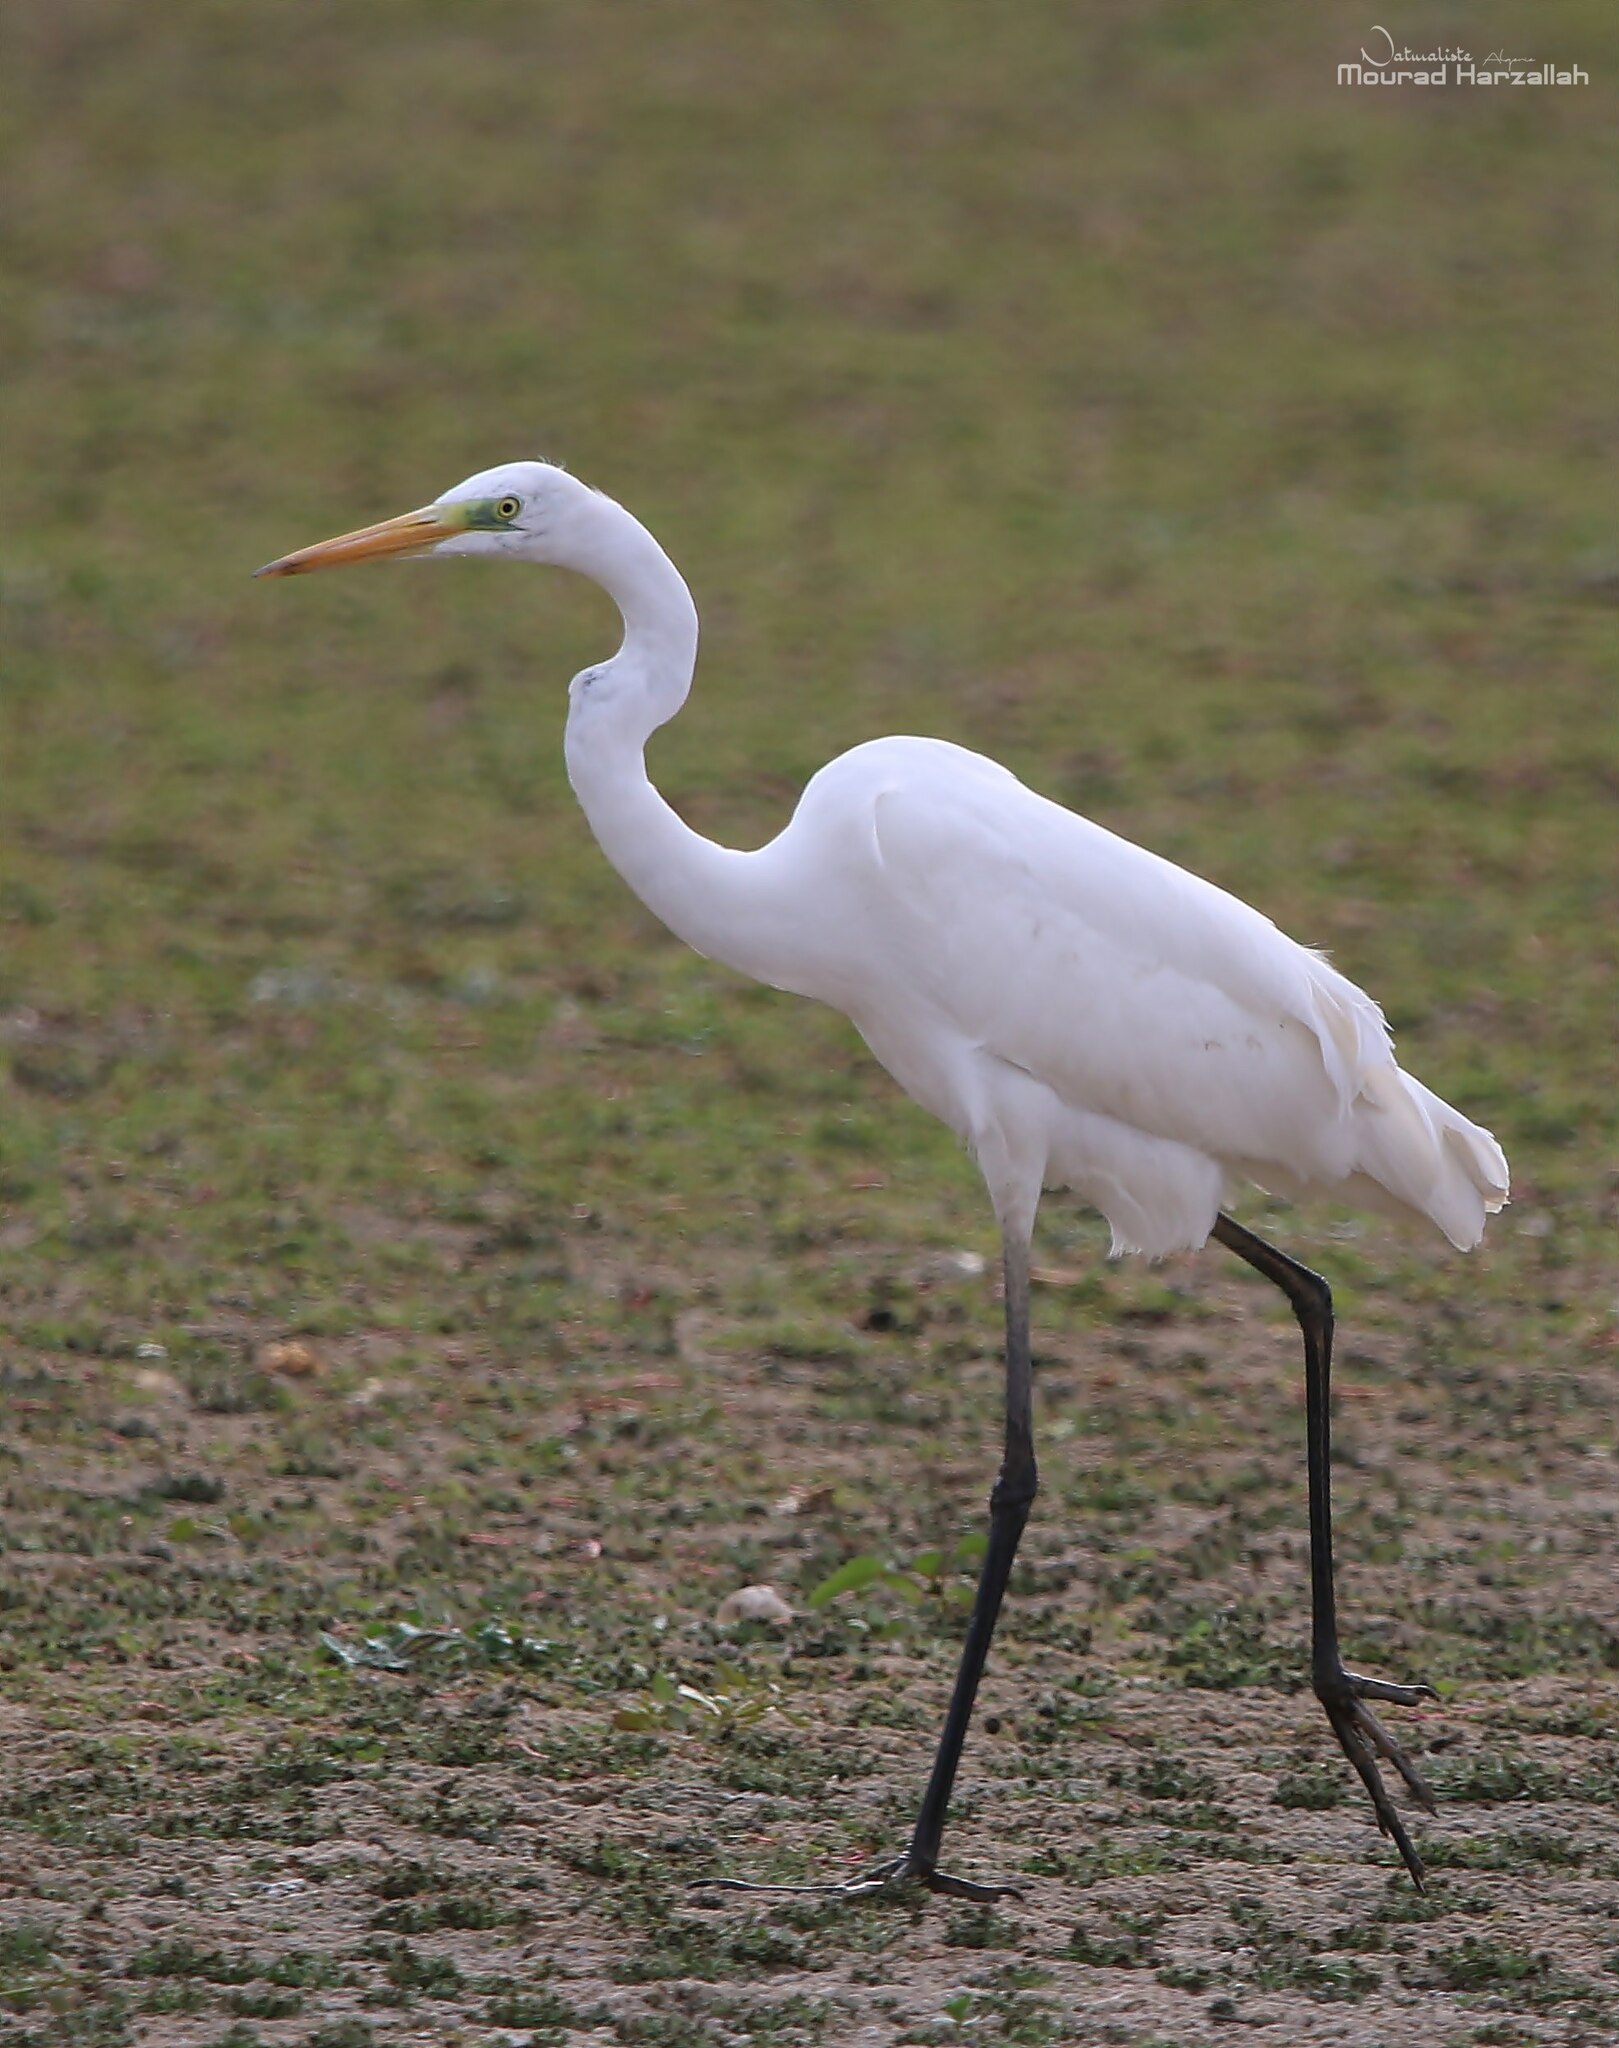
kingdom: Animalia
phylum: Chordata
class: Aves
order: Pelecaniformes
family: Ardeidae
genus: Ardea
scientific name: Ardea alba
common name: Great egret
